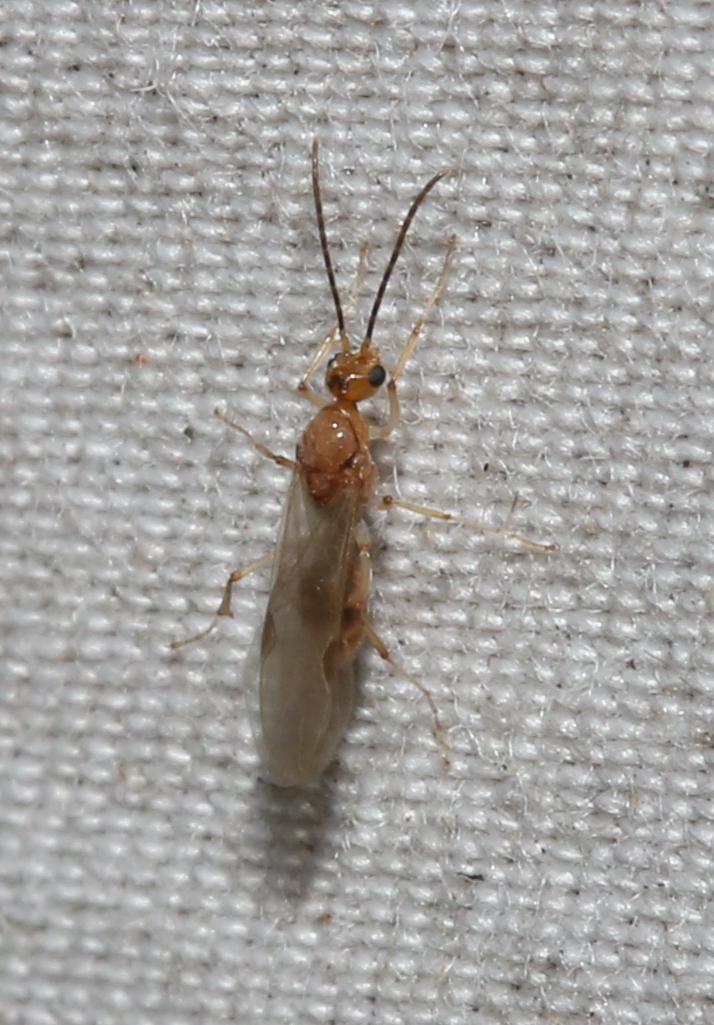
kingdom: Animalia
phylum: Arthropoda
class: Insecta
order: Hymenoptera
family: Formicidae
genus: Pachycondyla
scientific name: Pachycondyla chinensis
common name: Asian needle ant
